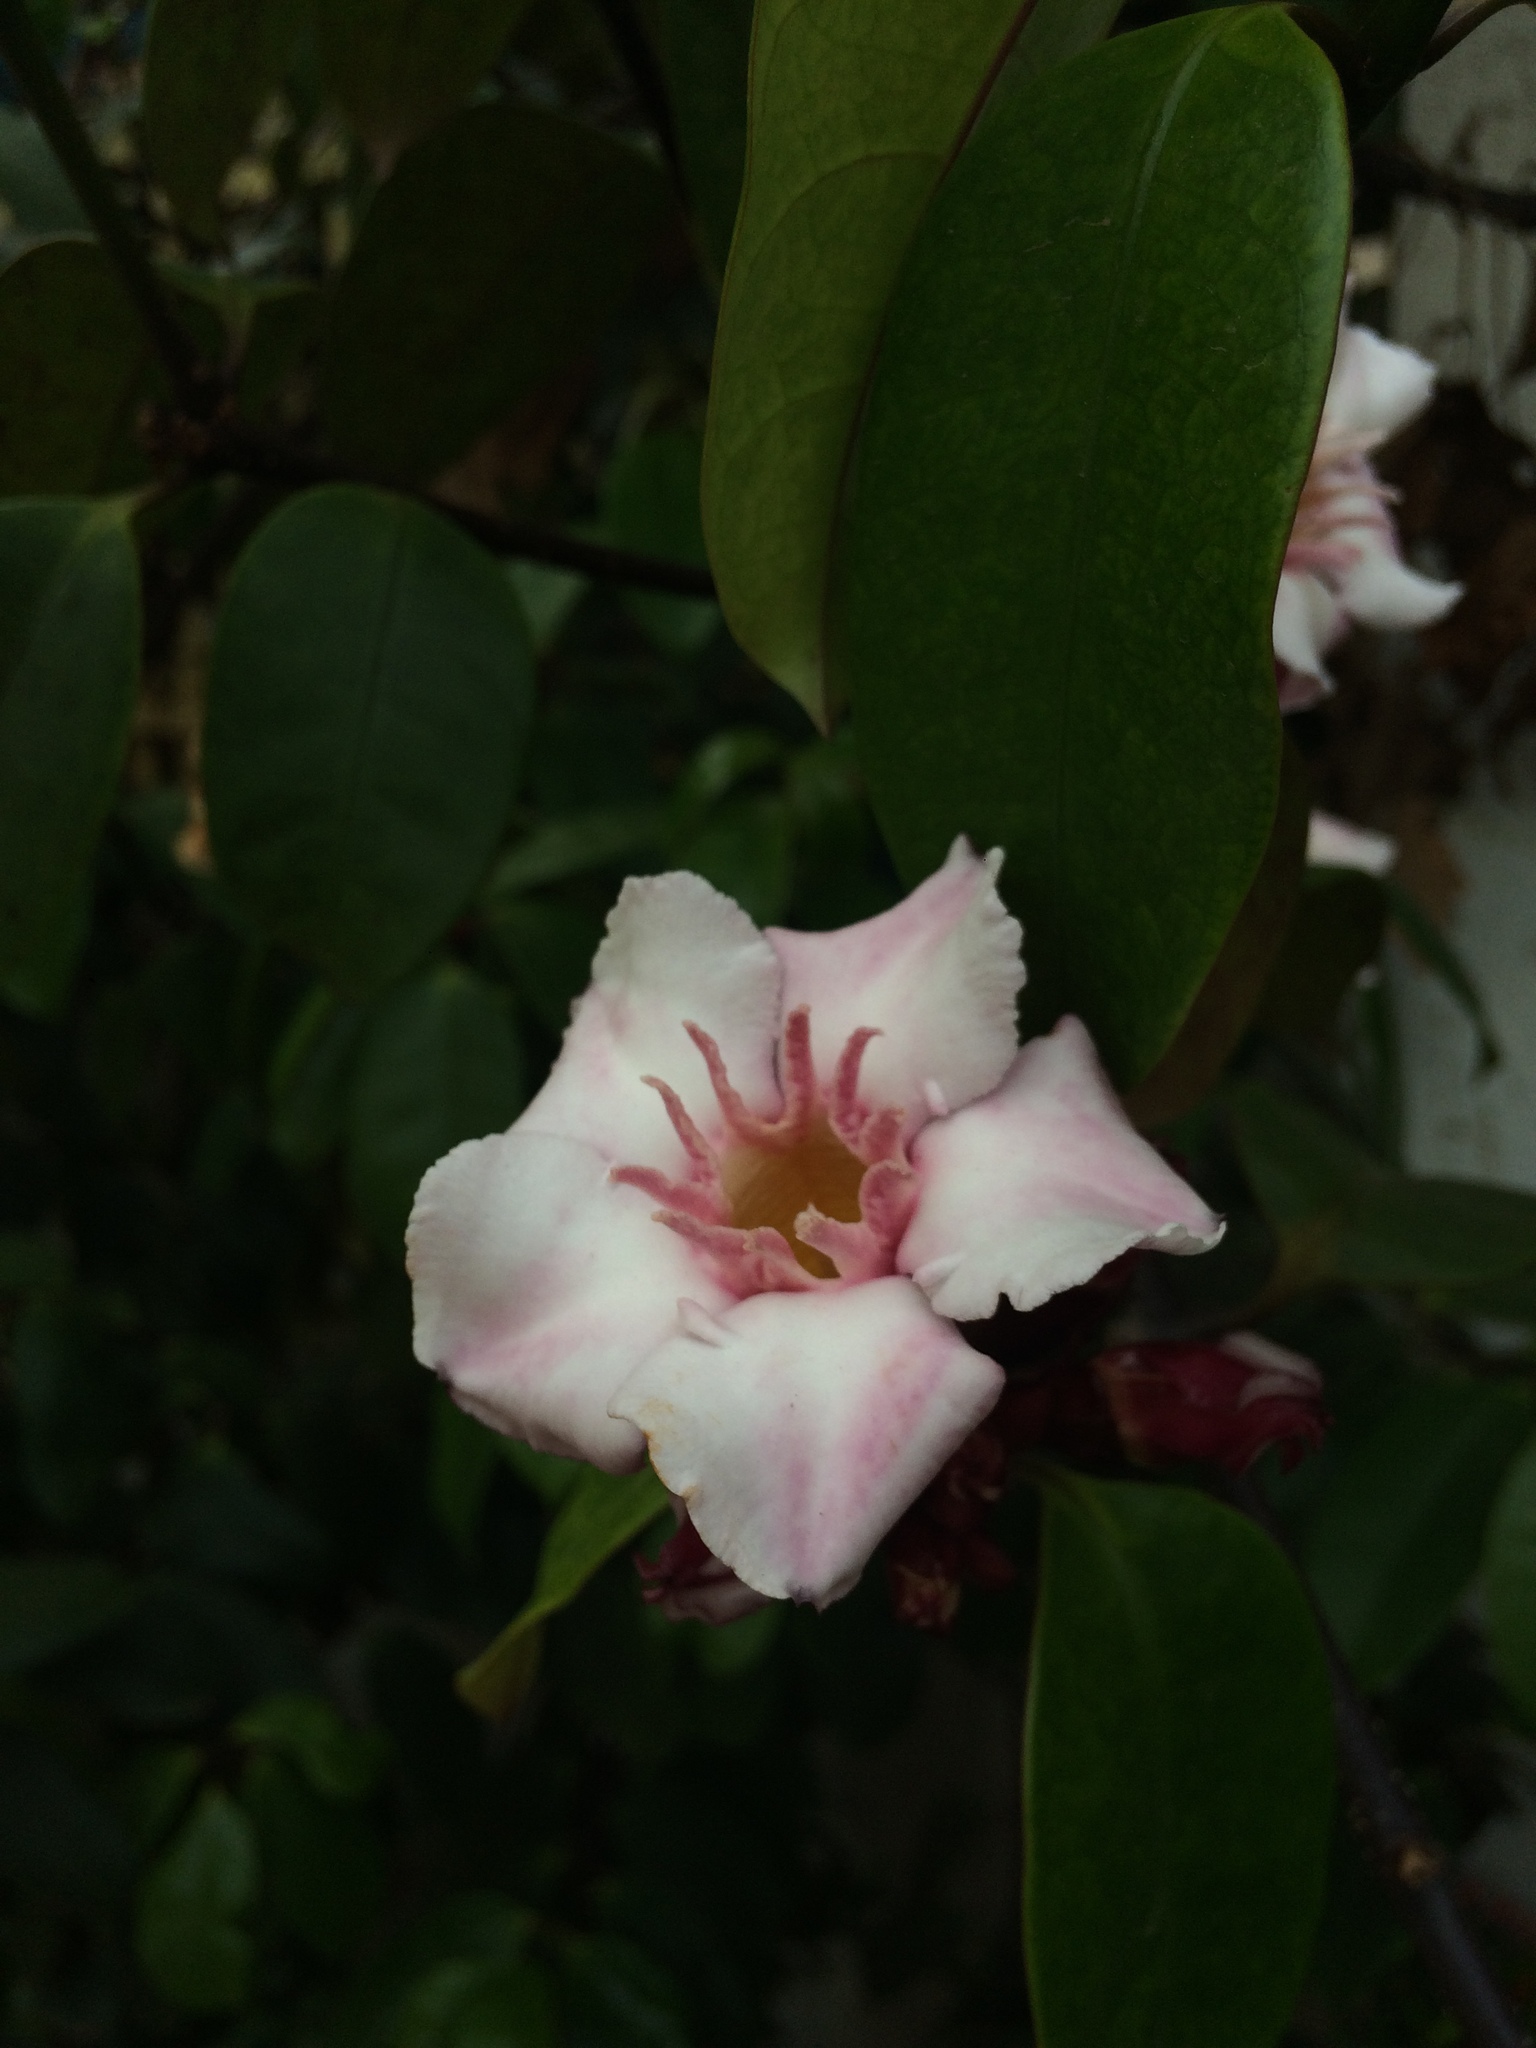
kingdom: Plantae
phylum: Tracheophyta
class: Magnoliopsida
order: Gentianales
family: Apocynaceae
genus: Strophanthus
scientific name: Strophanthus gratus
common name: Climbing-oleander
